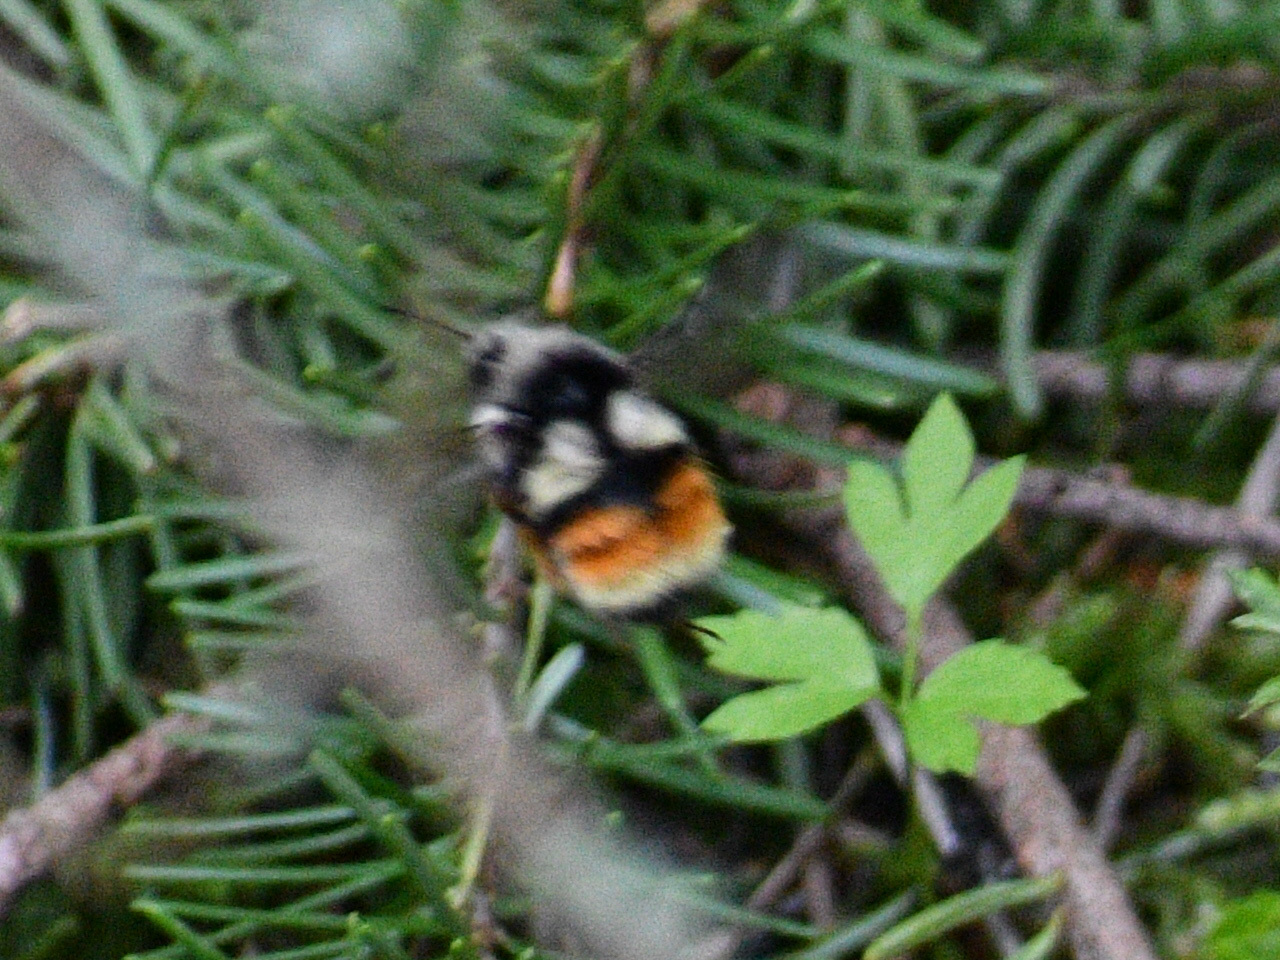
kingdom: Animalia
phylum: Arthropoda
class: Insecta
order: Hymenoptera
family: Apidae
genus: Bombus
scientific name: Bombus vancouverensis
